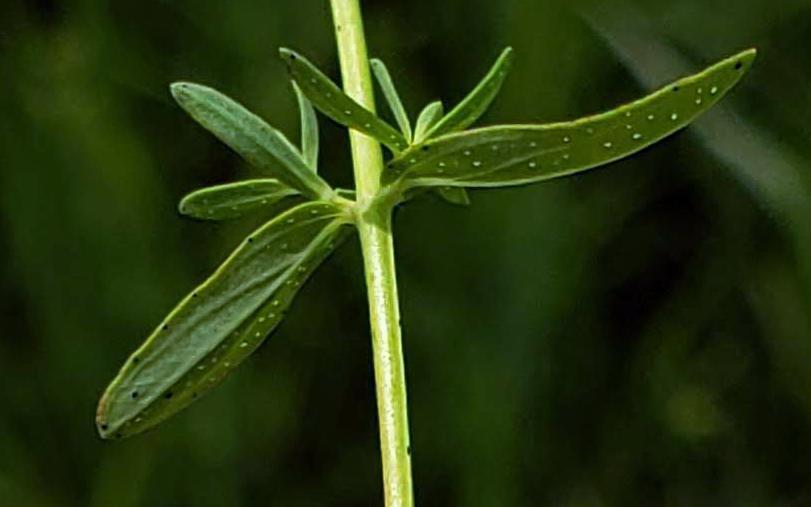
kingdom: Plantae
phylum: Tracheophyta
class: Magnoliopsida
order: Malpighiales
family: Hypericaceae
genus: Hypericum
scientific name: Hypericum perforatum
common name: Common st. johnswort
